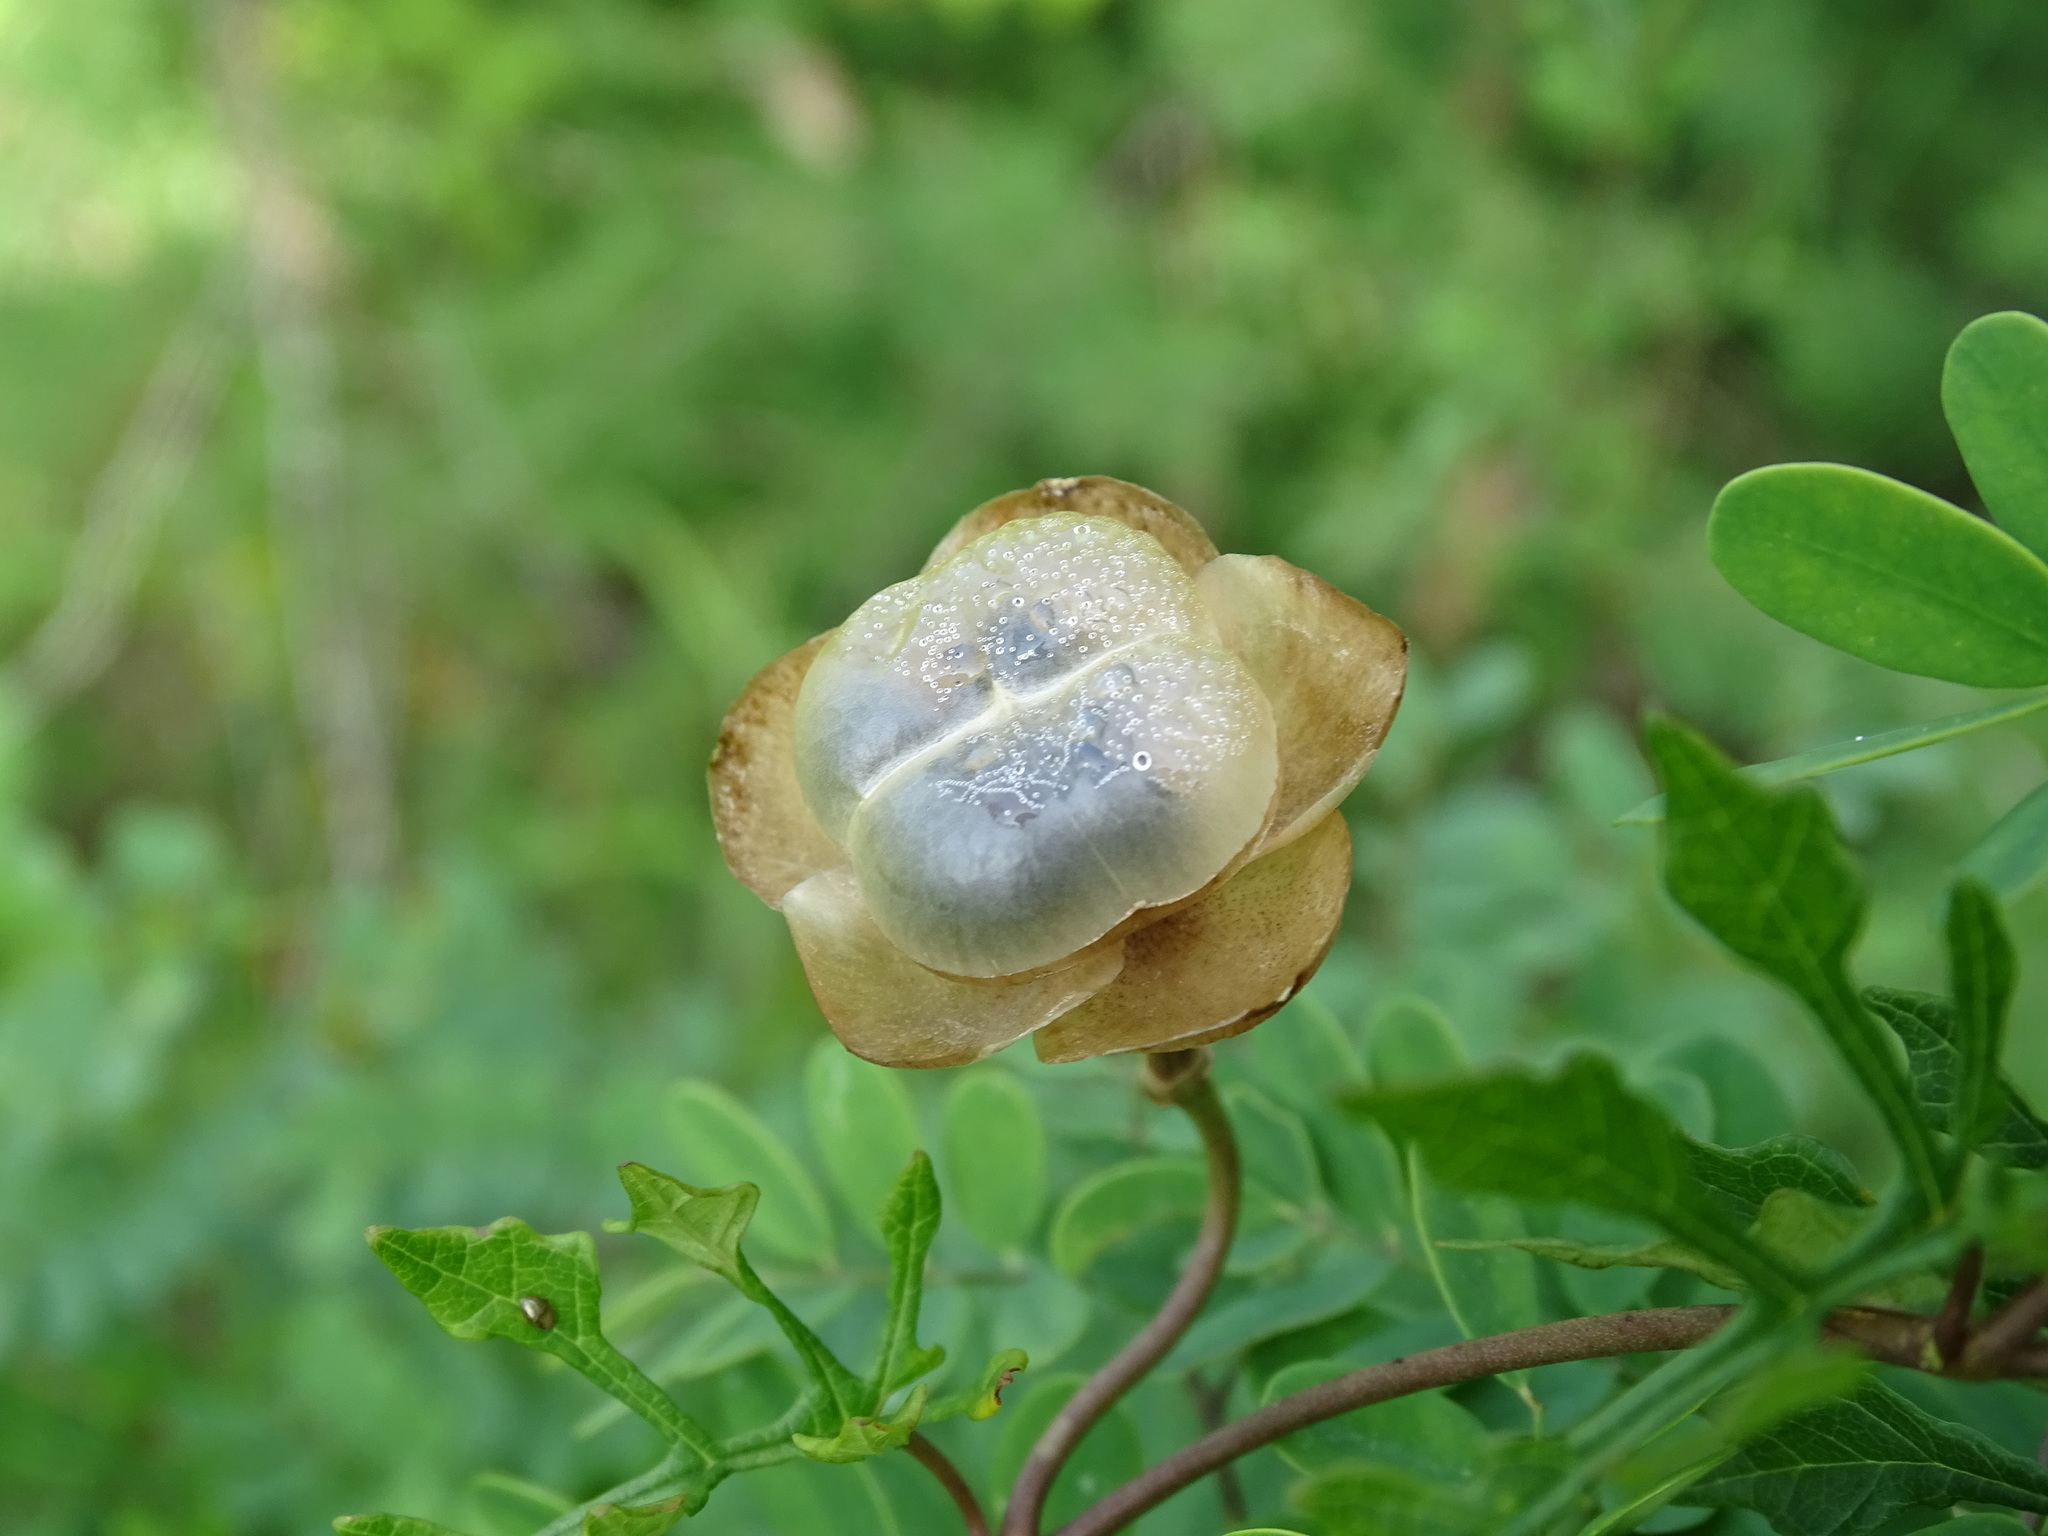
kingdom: Plantae
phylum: Tracheophyta
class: Magnoliopsida
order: Solanales
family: Convolvulaceae
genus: Operculina
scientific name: Operculina pinnatifida
